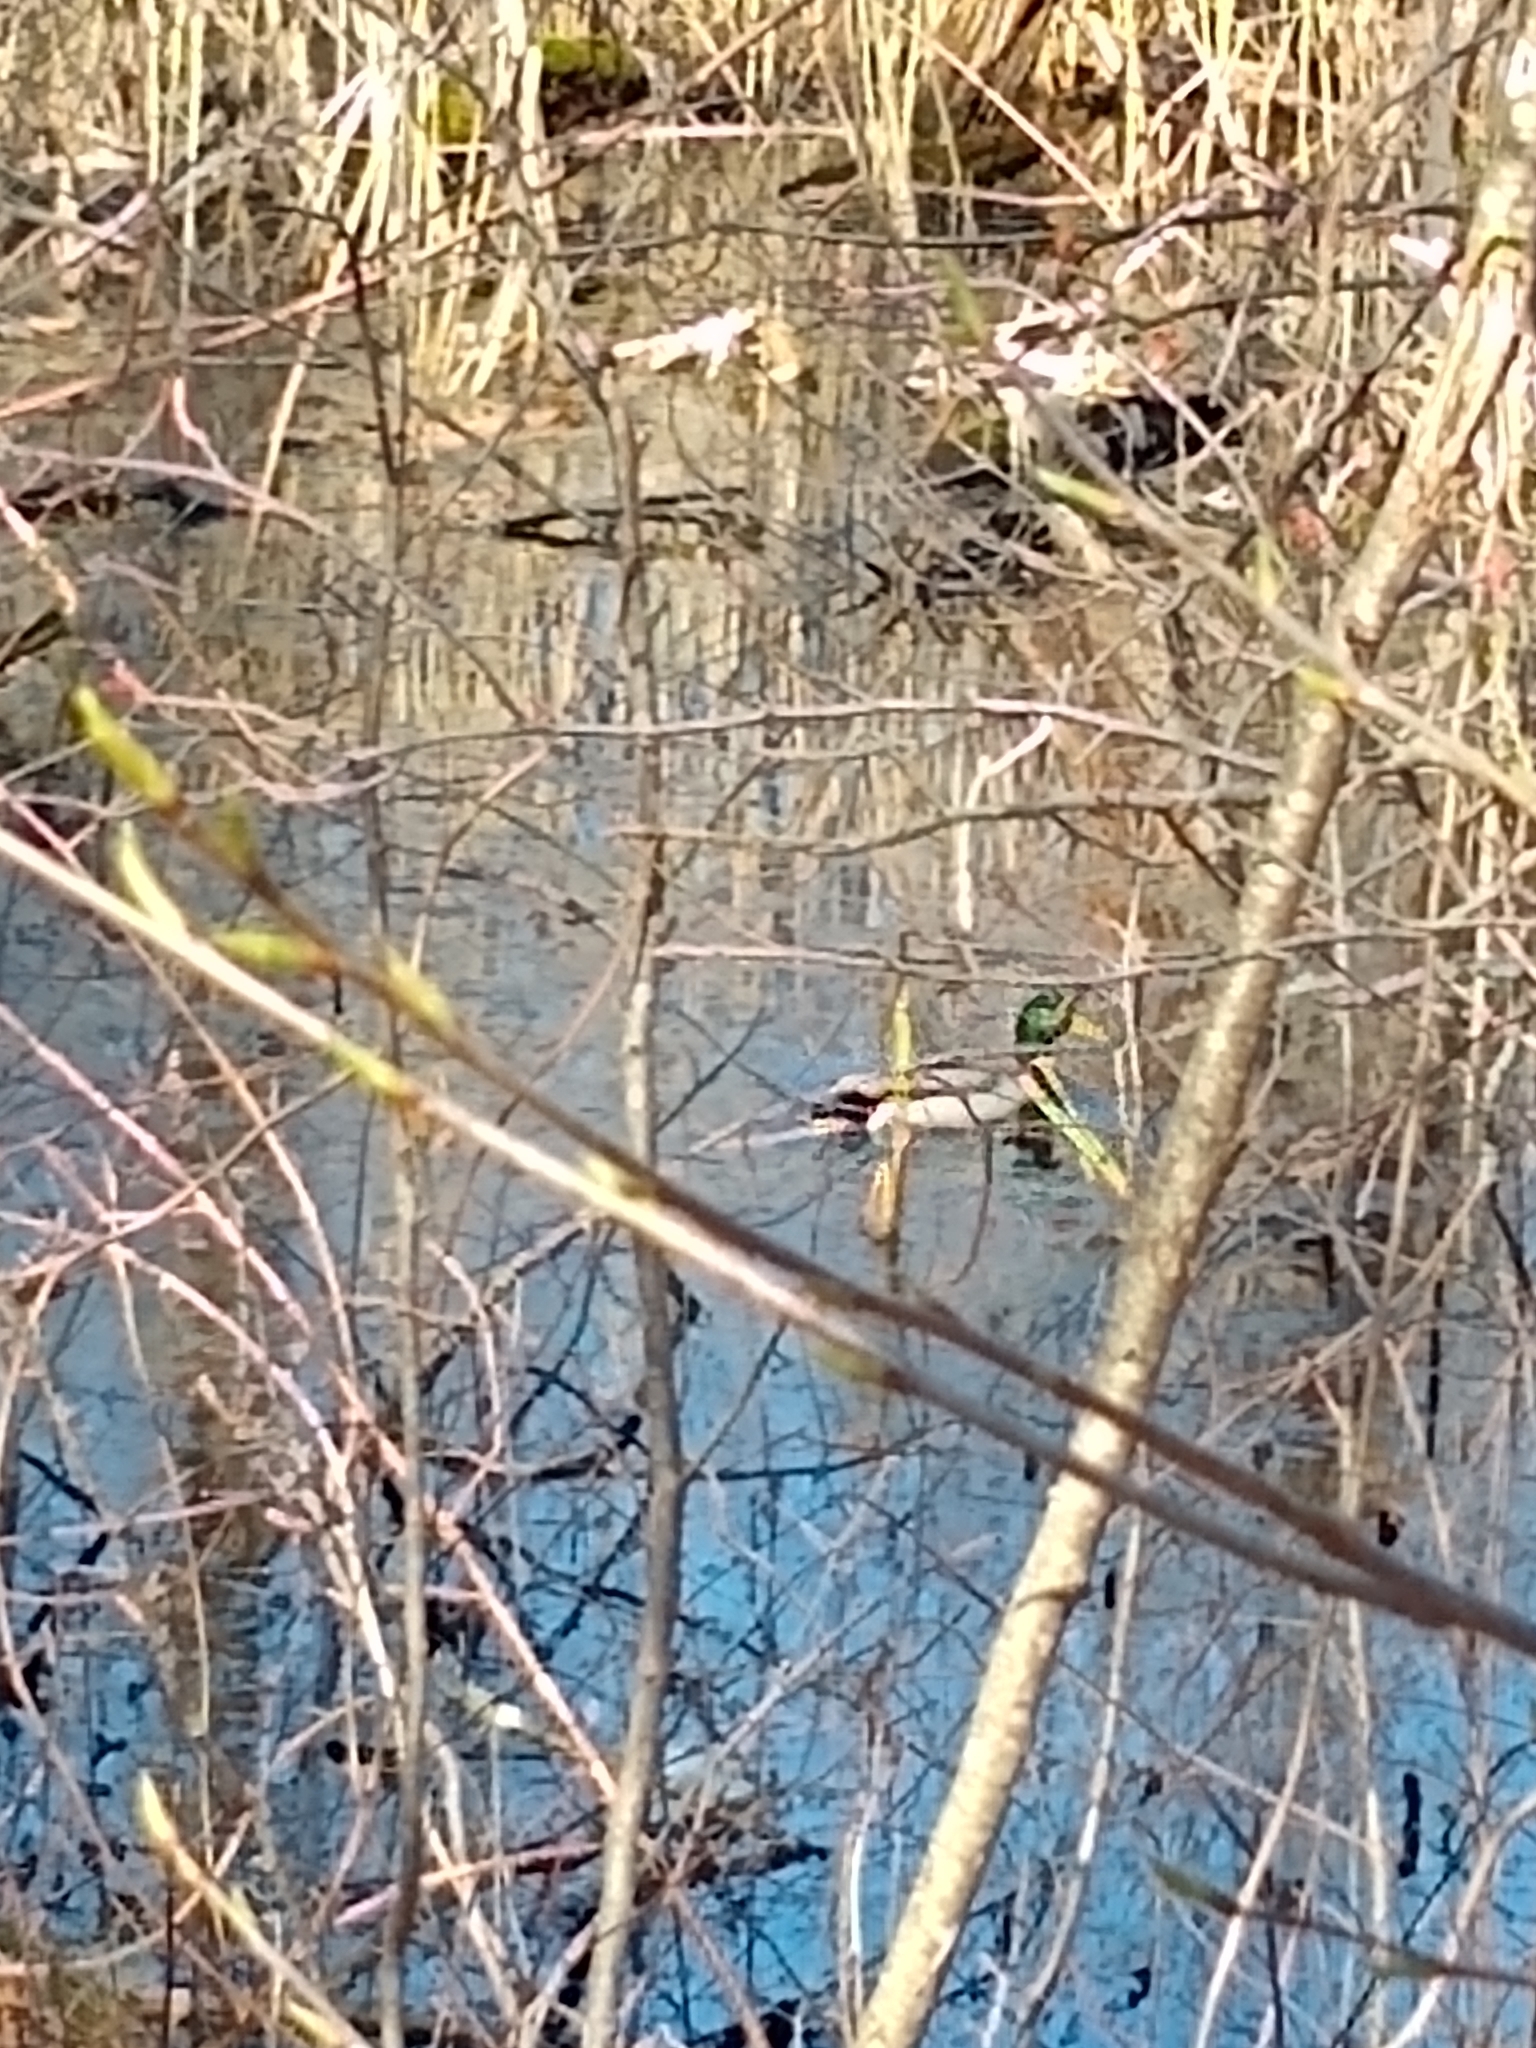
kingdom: Animalia
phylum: Chordata
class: Aves
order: Anseriformes
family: Anatidae
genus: Anas
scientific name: Anas platyrhynchos
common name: Mallard
